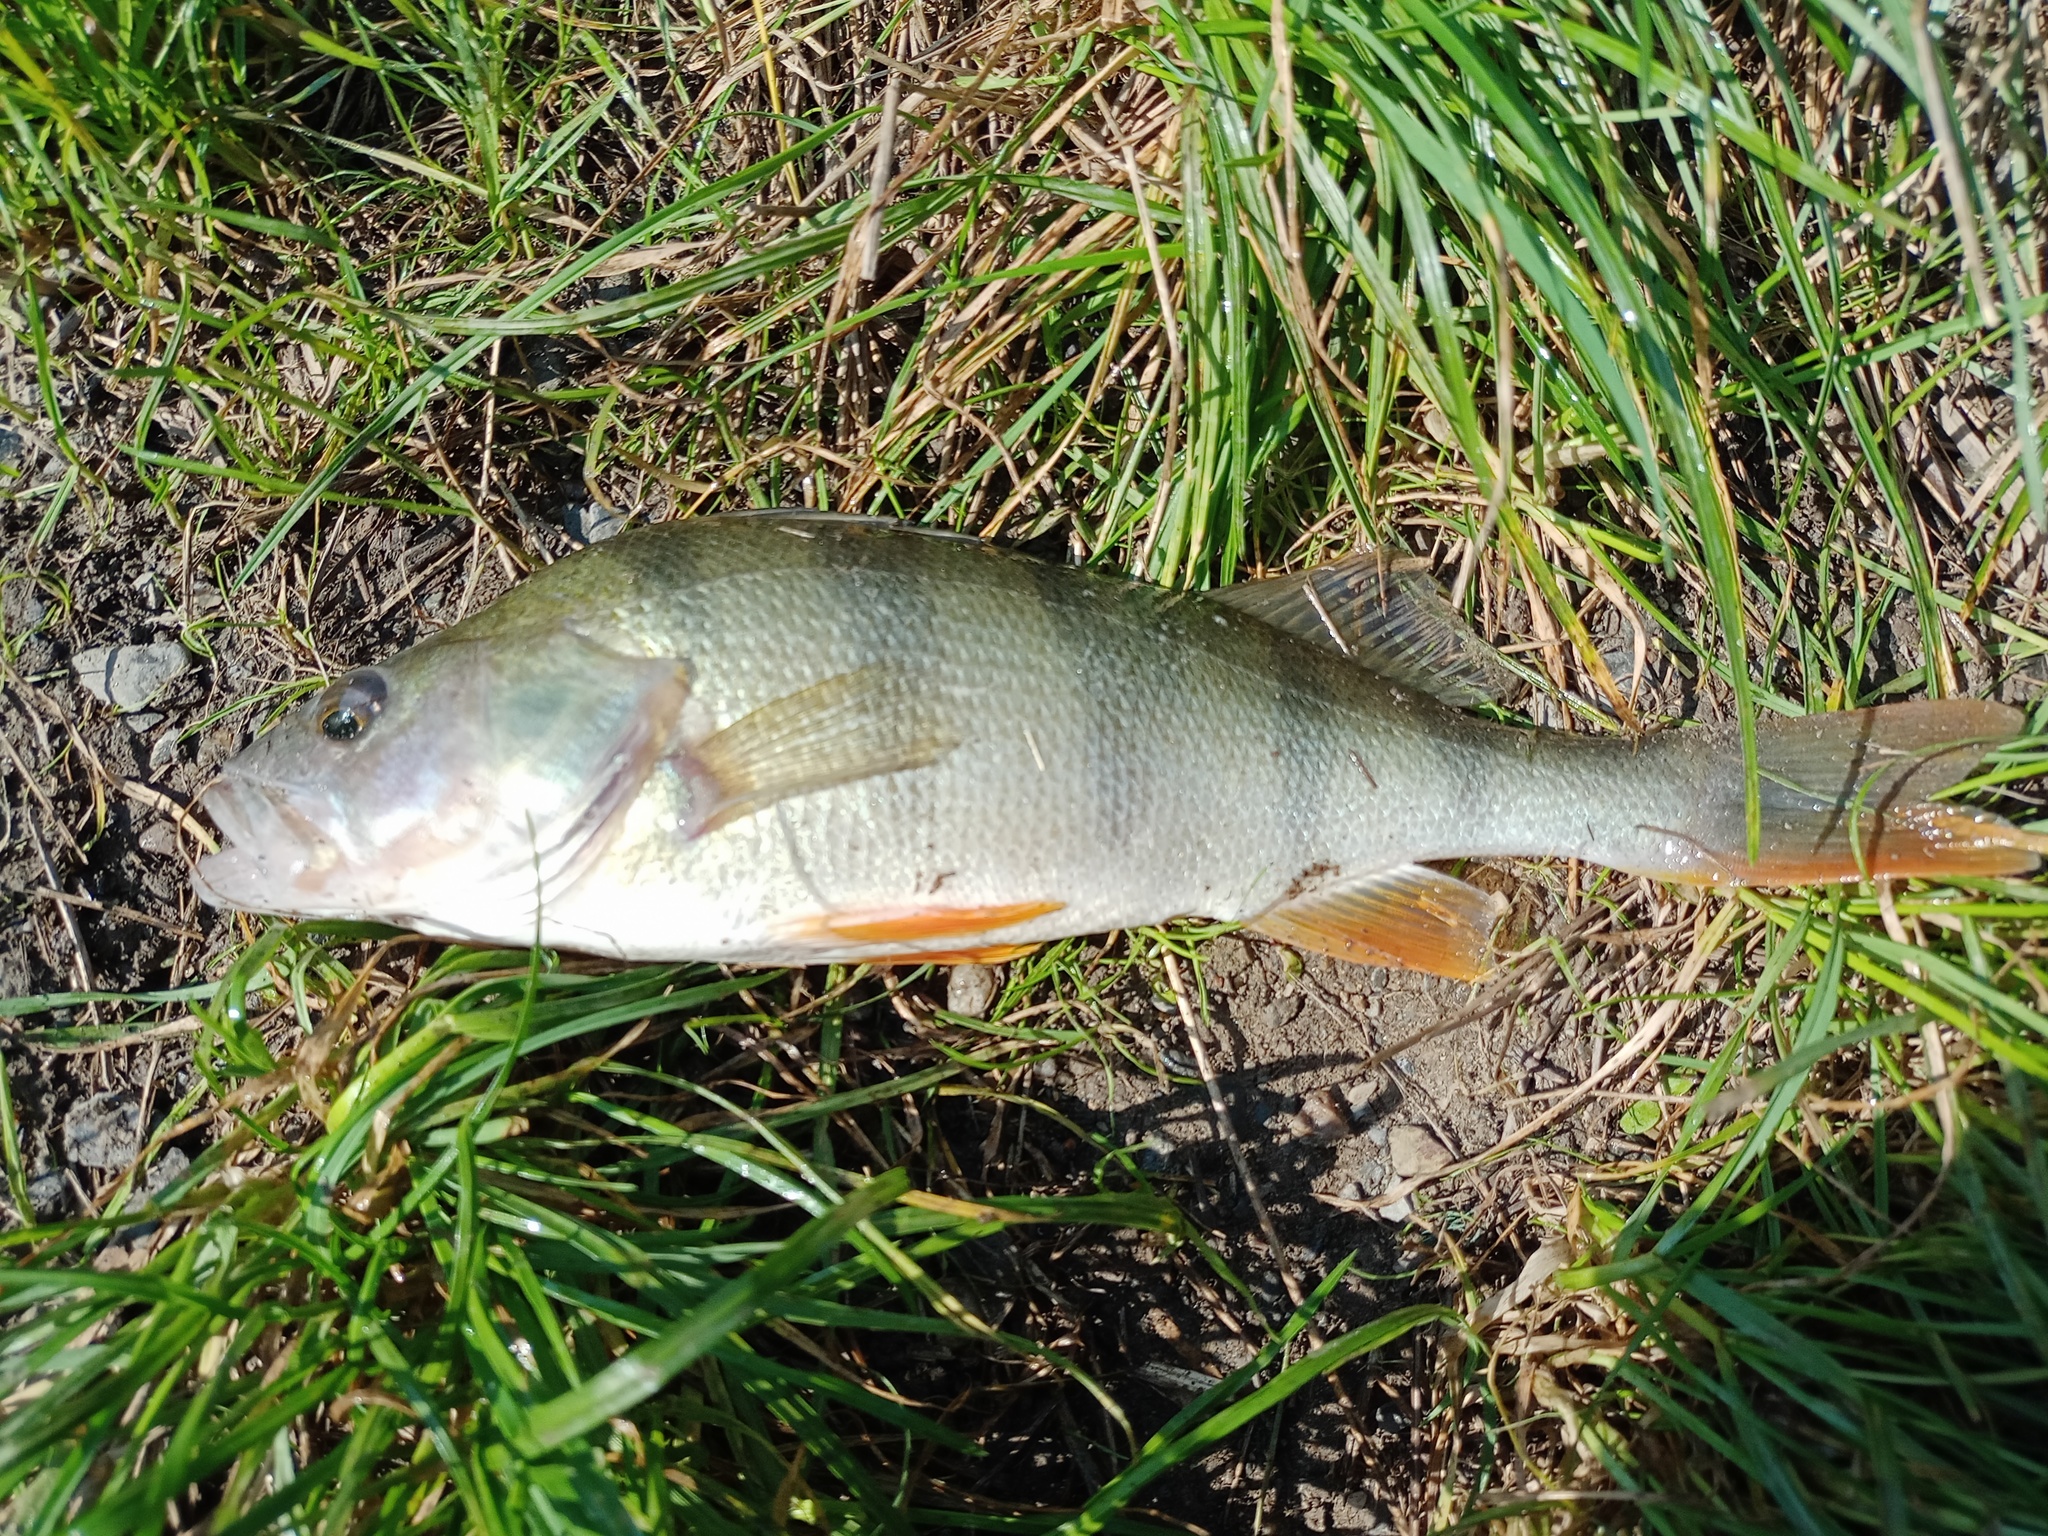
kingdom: Animalia
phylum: Chordata
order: Perciformes
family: Percidae
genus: Perca
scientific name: Perca fluviatilis
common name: Perch
